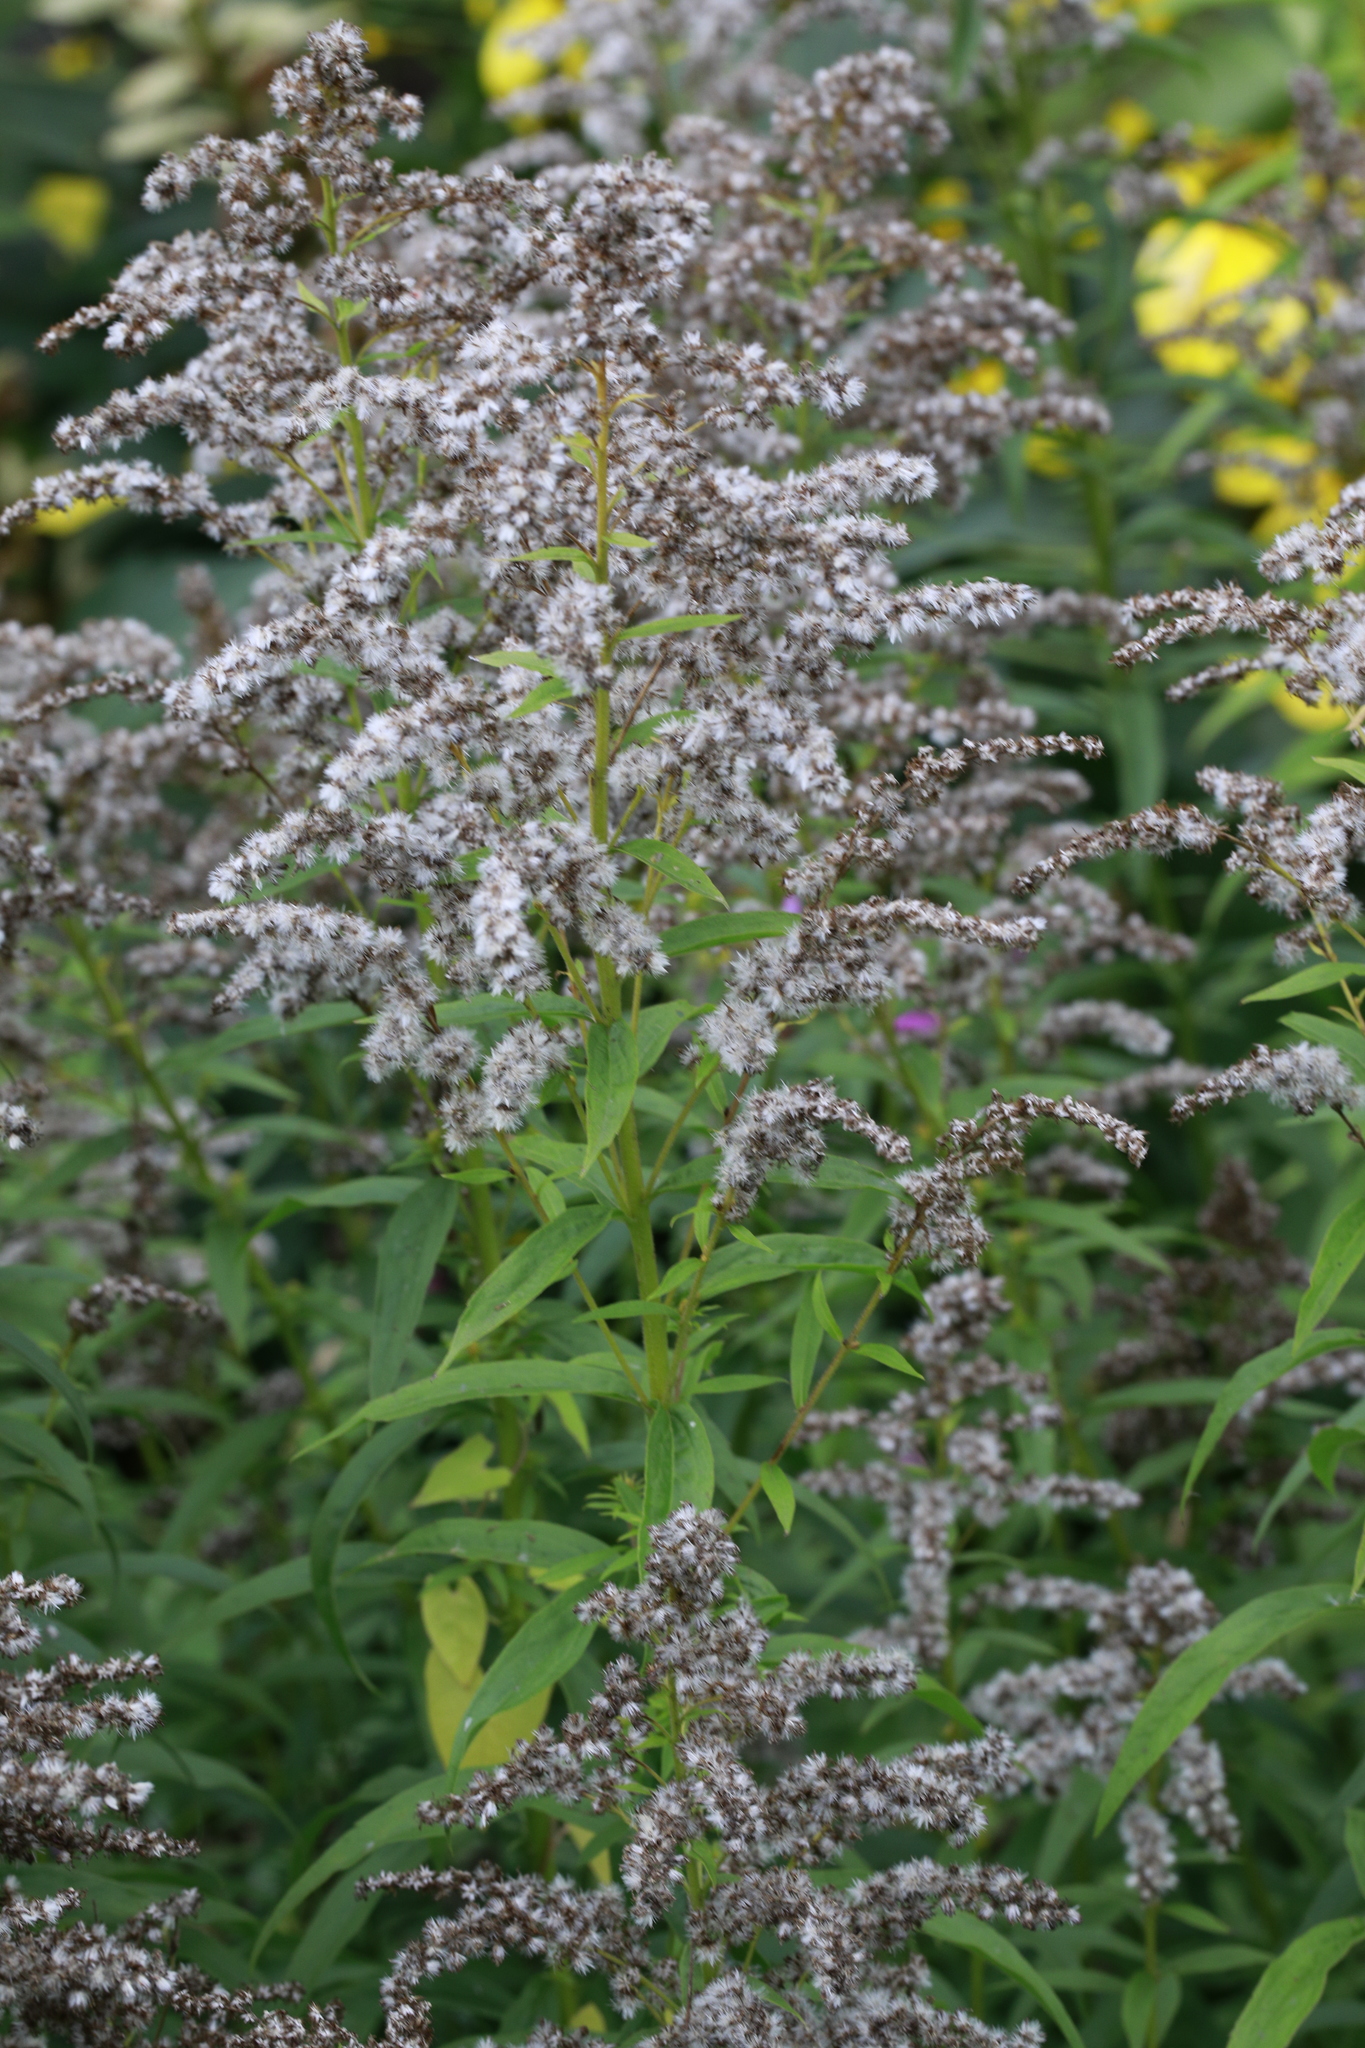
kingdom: Plantae
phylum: Tracheophyta
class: Magnoliopsida
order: Asterales
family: Asteraceae
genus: Solidago
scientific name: Solidago canadensis
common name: Canada goldenrod
